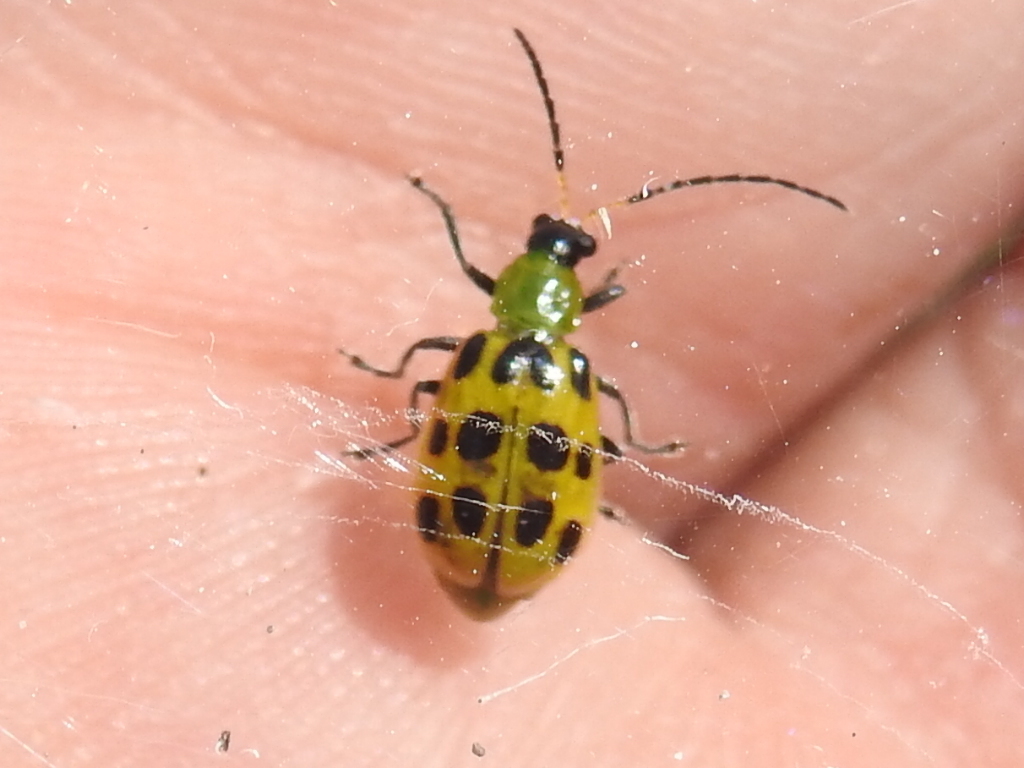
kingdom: Animalia
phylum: Arthropoda
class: Insecta
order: Coleoptera
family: Chrysomelidae
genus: Diabrotica
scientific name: Diabrotica undecimpunctata
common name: Spotted cucumber beetle
